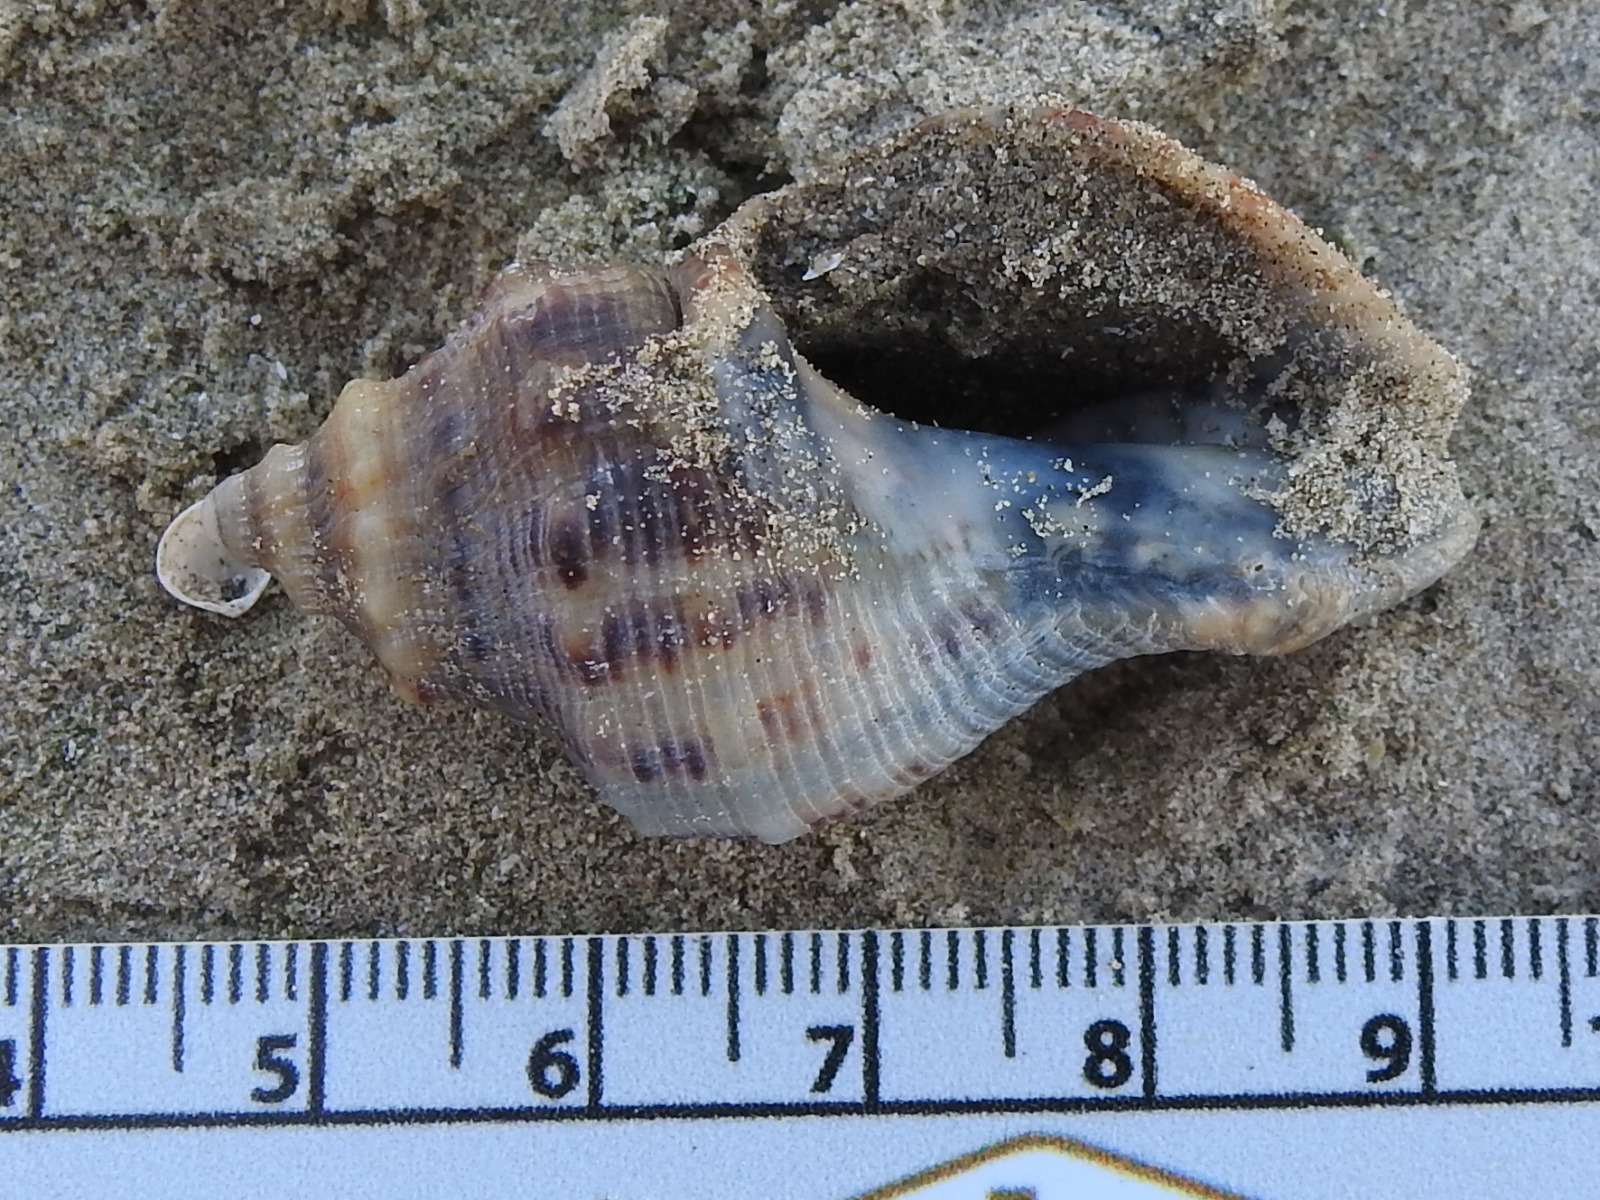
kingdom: Animalia
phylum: Mollusca
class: Gastropoda
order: Neogastropoda
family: Muricidae
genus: Stramonita
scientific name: Stramonita canaliculata
